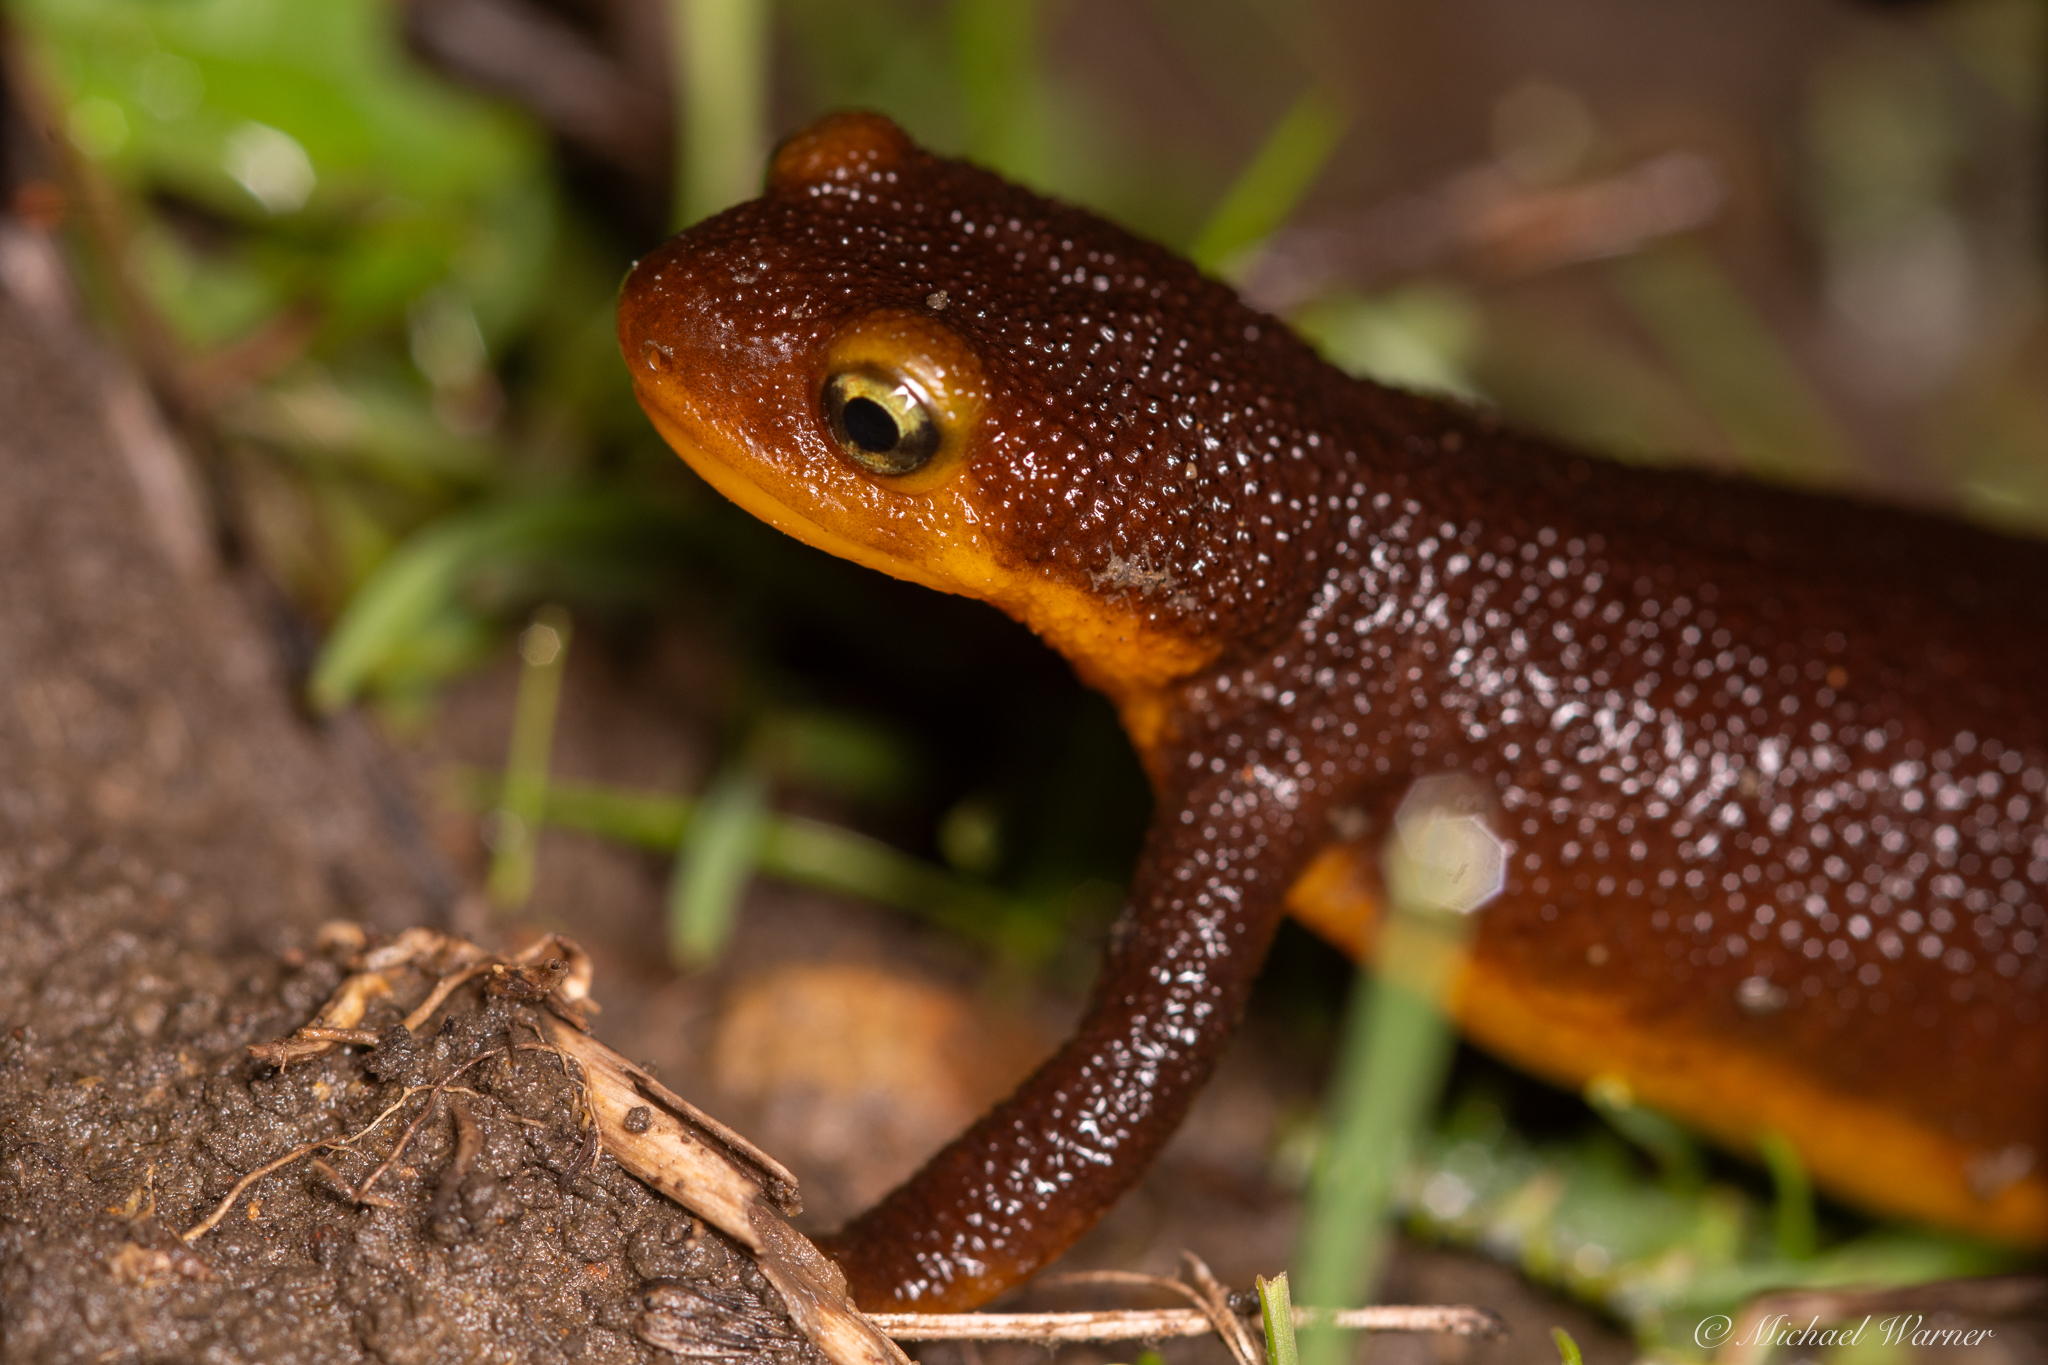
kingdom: Animalia
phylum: Chordata
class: Amphibia
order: Caudata
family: Salamandridae
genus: Taricha
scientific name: Taricha torosa
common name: California newt
